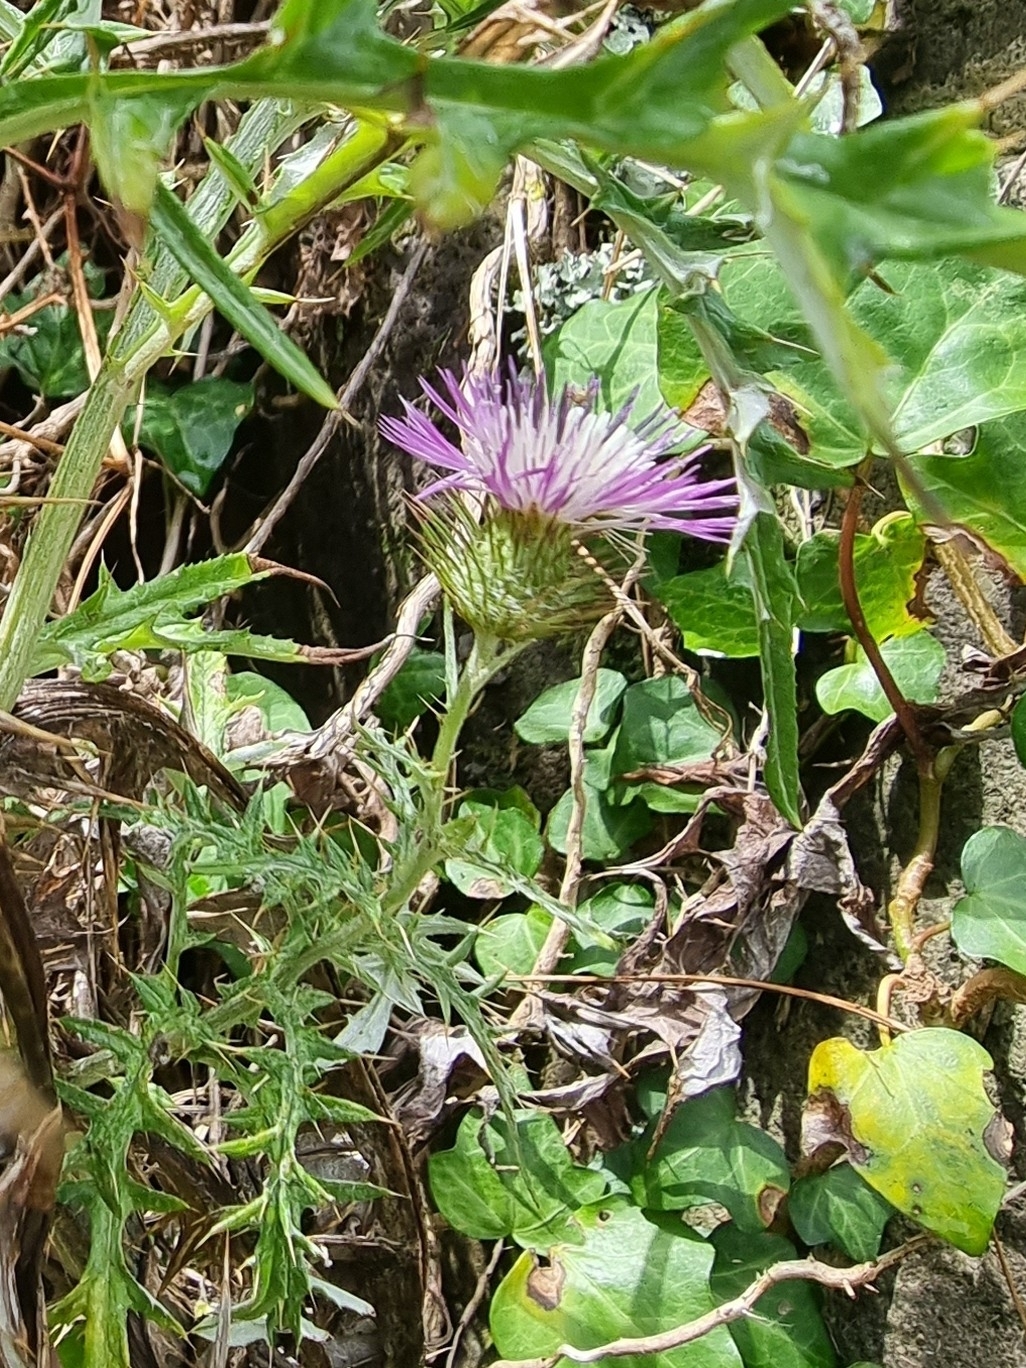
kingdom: Plantae
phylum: Tracheophyta
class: Magnoliopsida
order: Asterales
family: Asteraceae
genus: Galactites
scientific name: Galactites tomentosa
